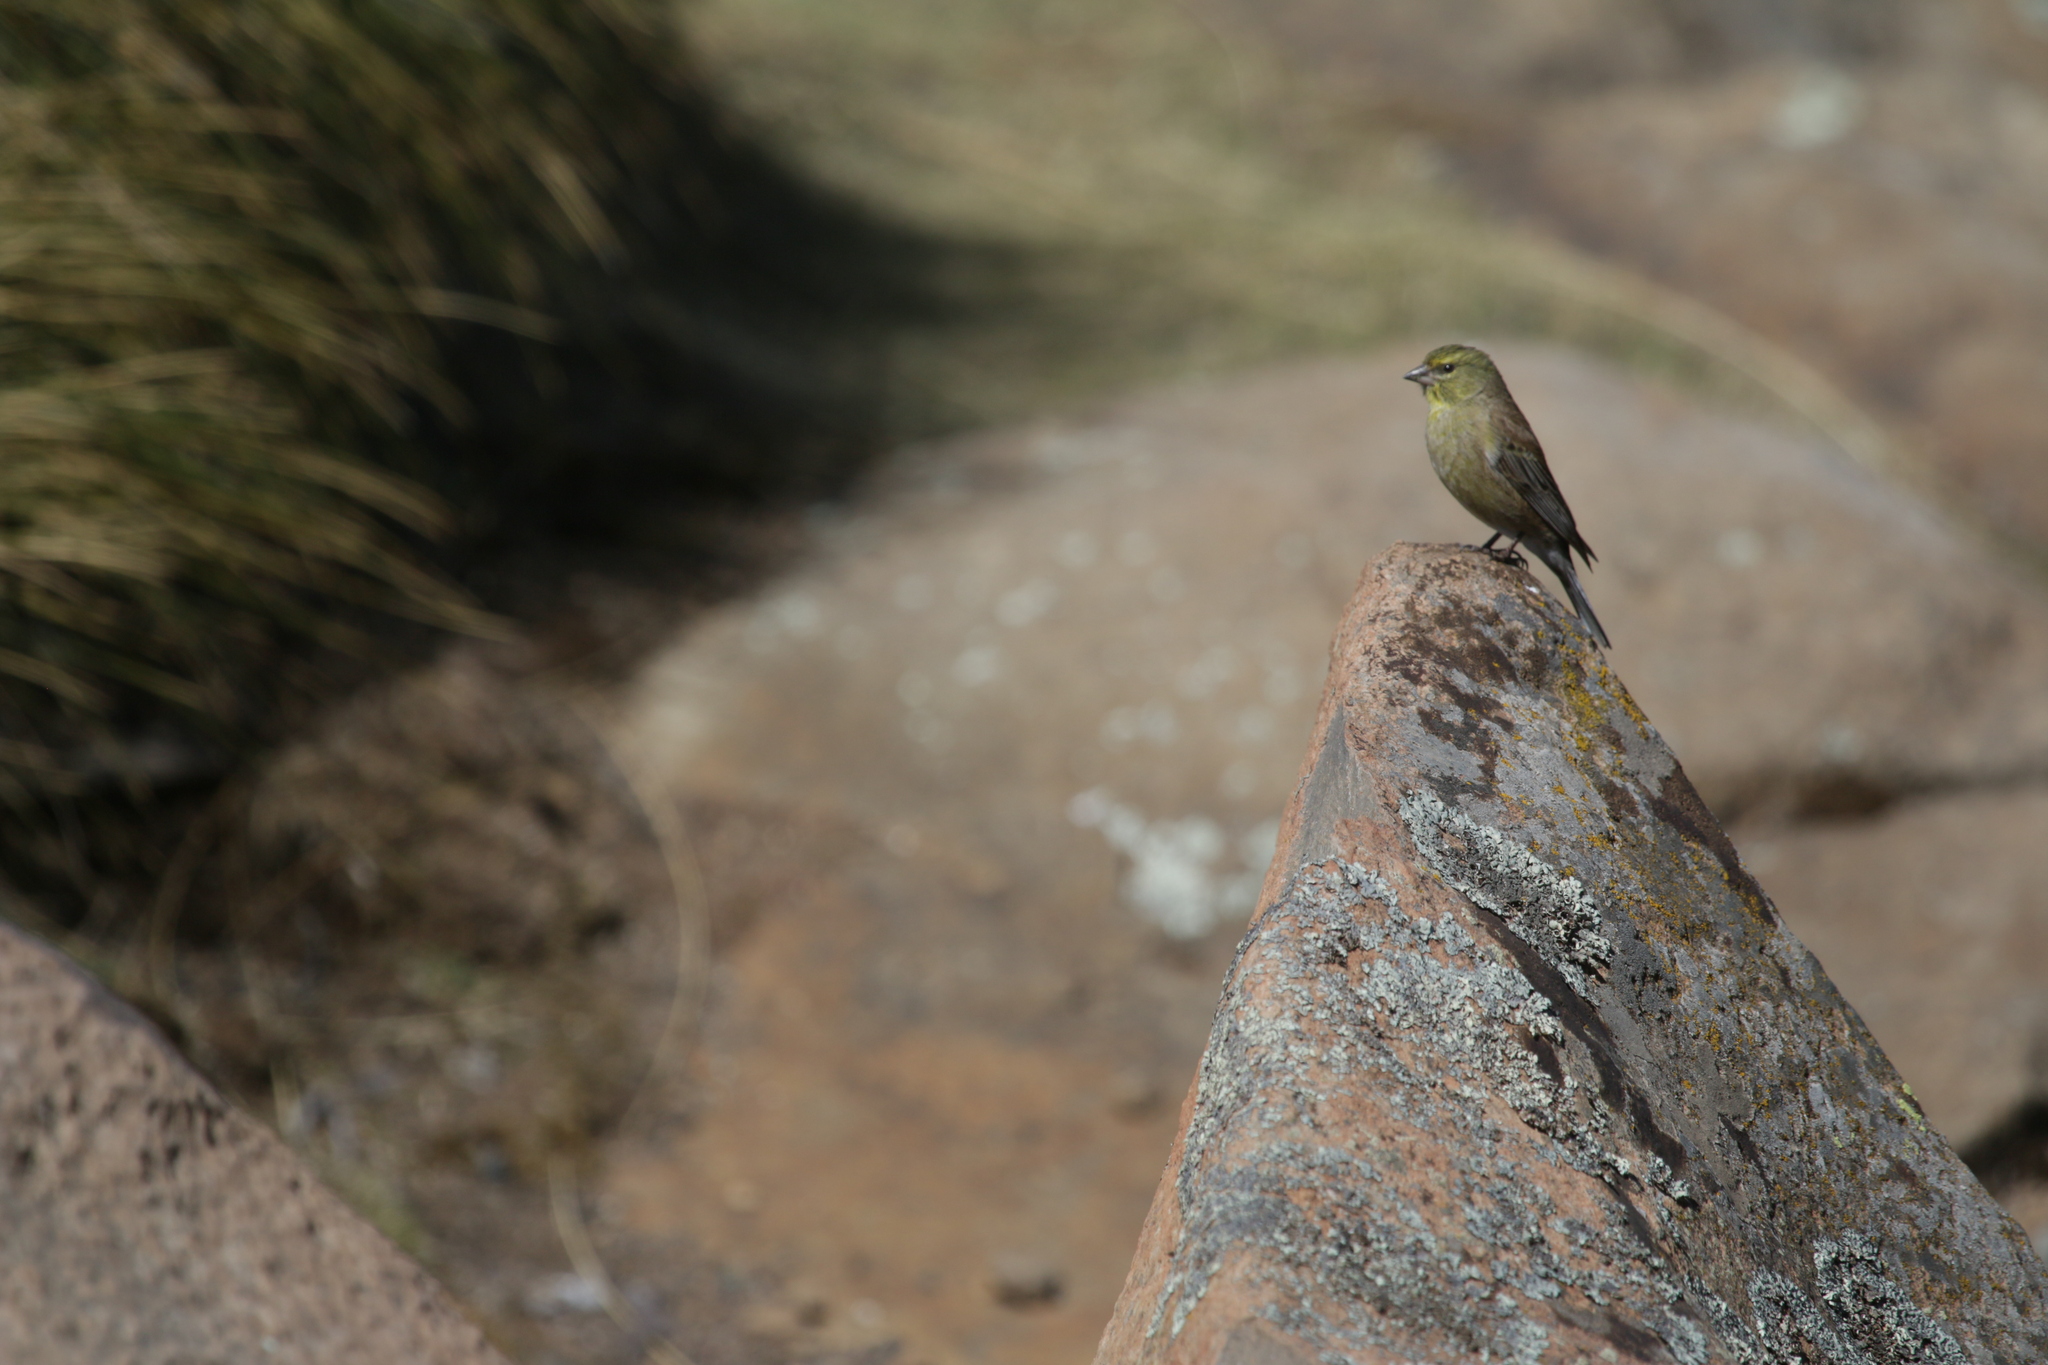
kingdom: Animalia
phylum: Chordata
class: Aves
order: Passeriformes
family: Fringillidae
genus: Crithagra
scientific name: Crithagra symonsi
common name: Drakensberg siskin
